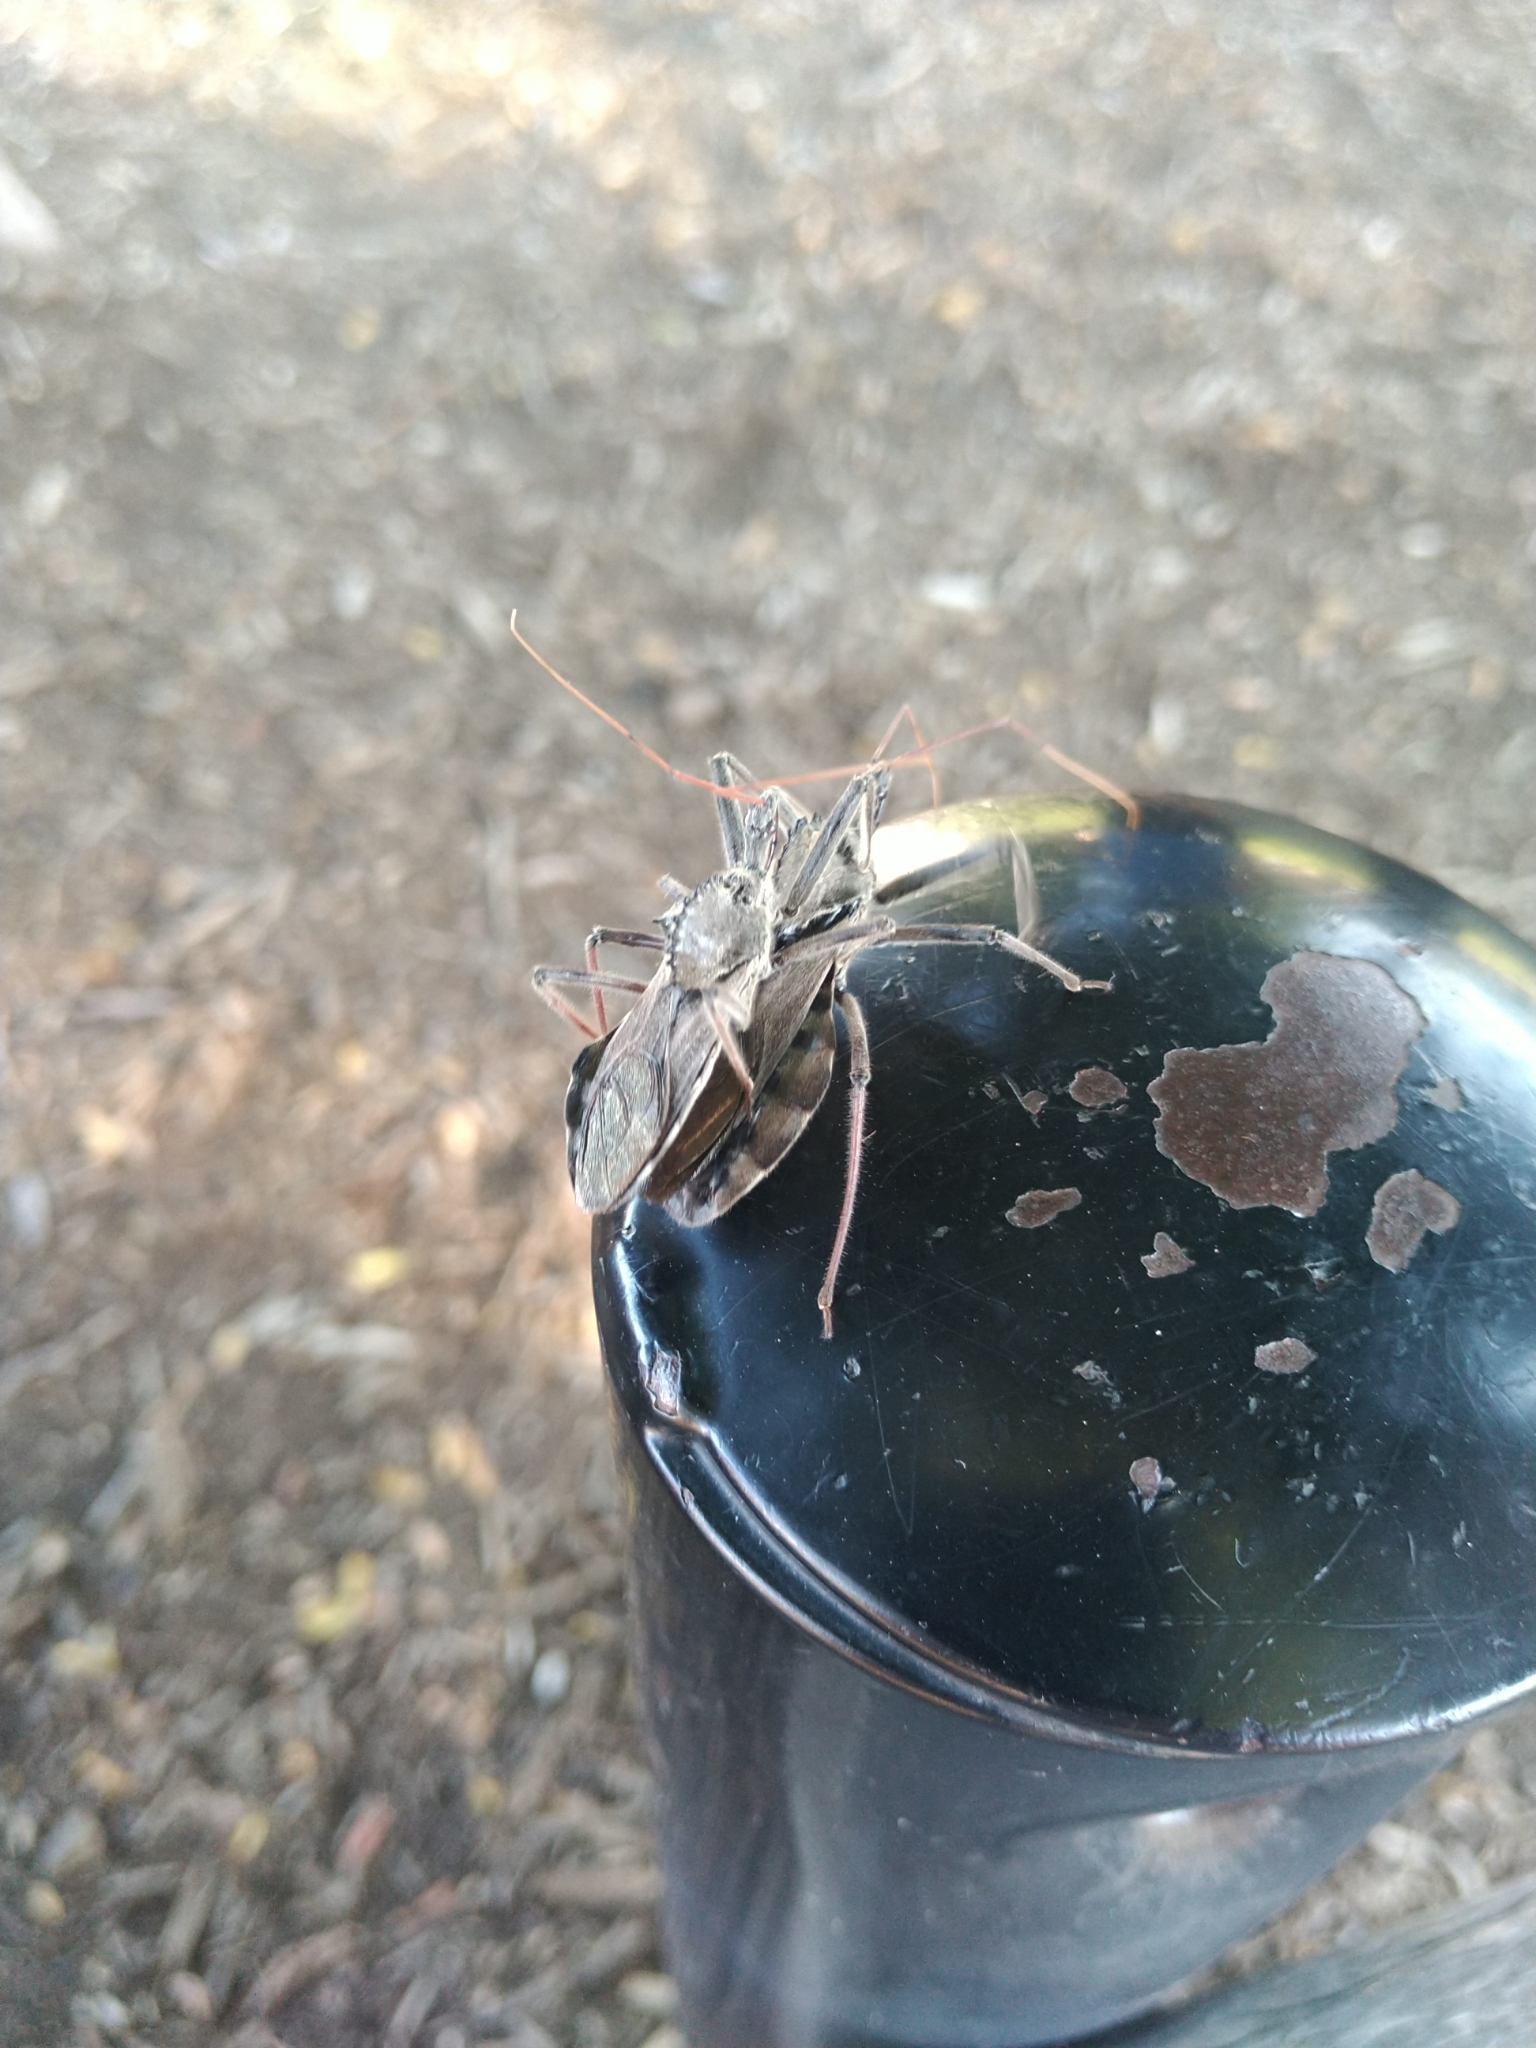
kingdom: Animalia
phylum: Arthropoda
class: Insecta
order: Hemiptera
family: Reduviidae
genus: Arilus
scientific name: Arilus cristatus
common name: North american wheel bug
